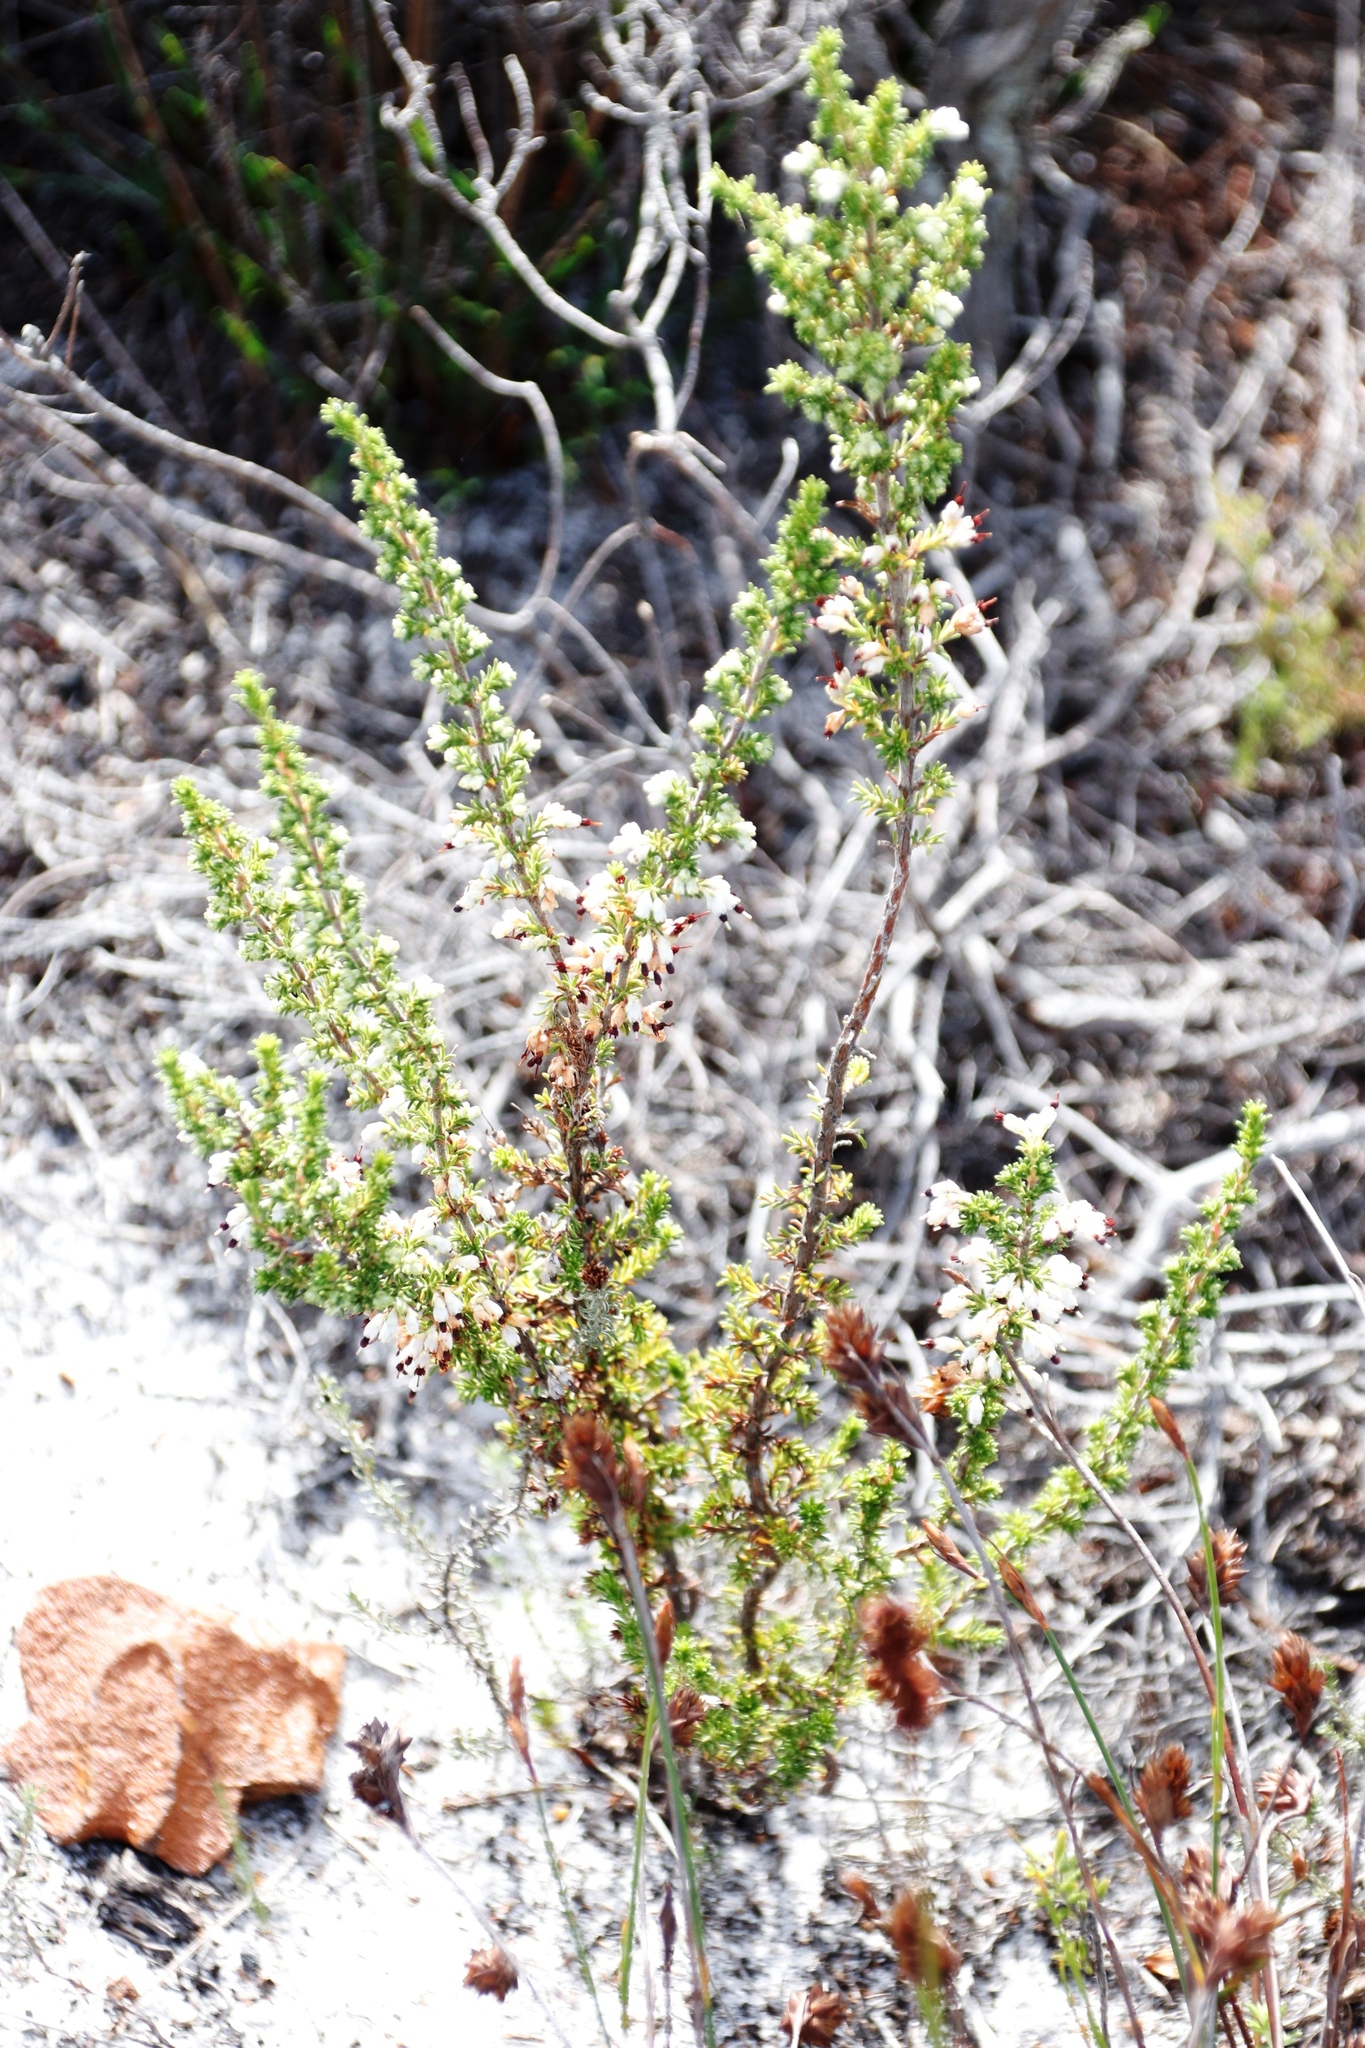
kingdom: Plantae
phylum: Tracheophyta
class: Magnoliopsida
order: Ericales
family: Ericaceae
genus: Erica
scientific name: Erica imbricata
